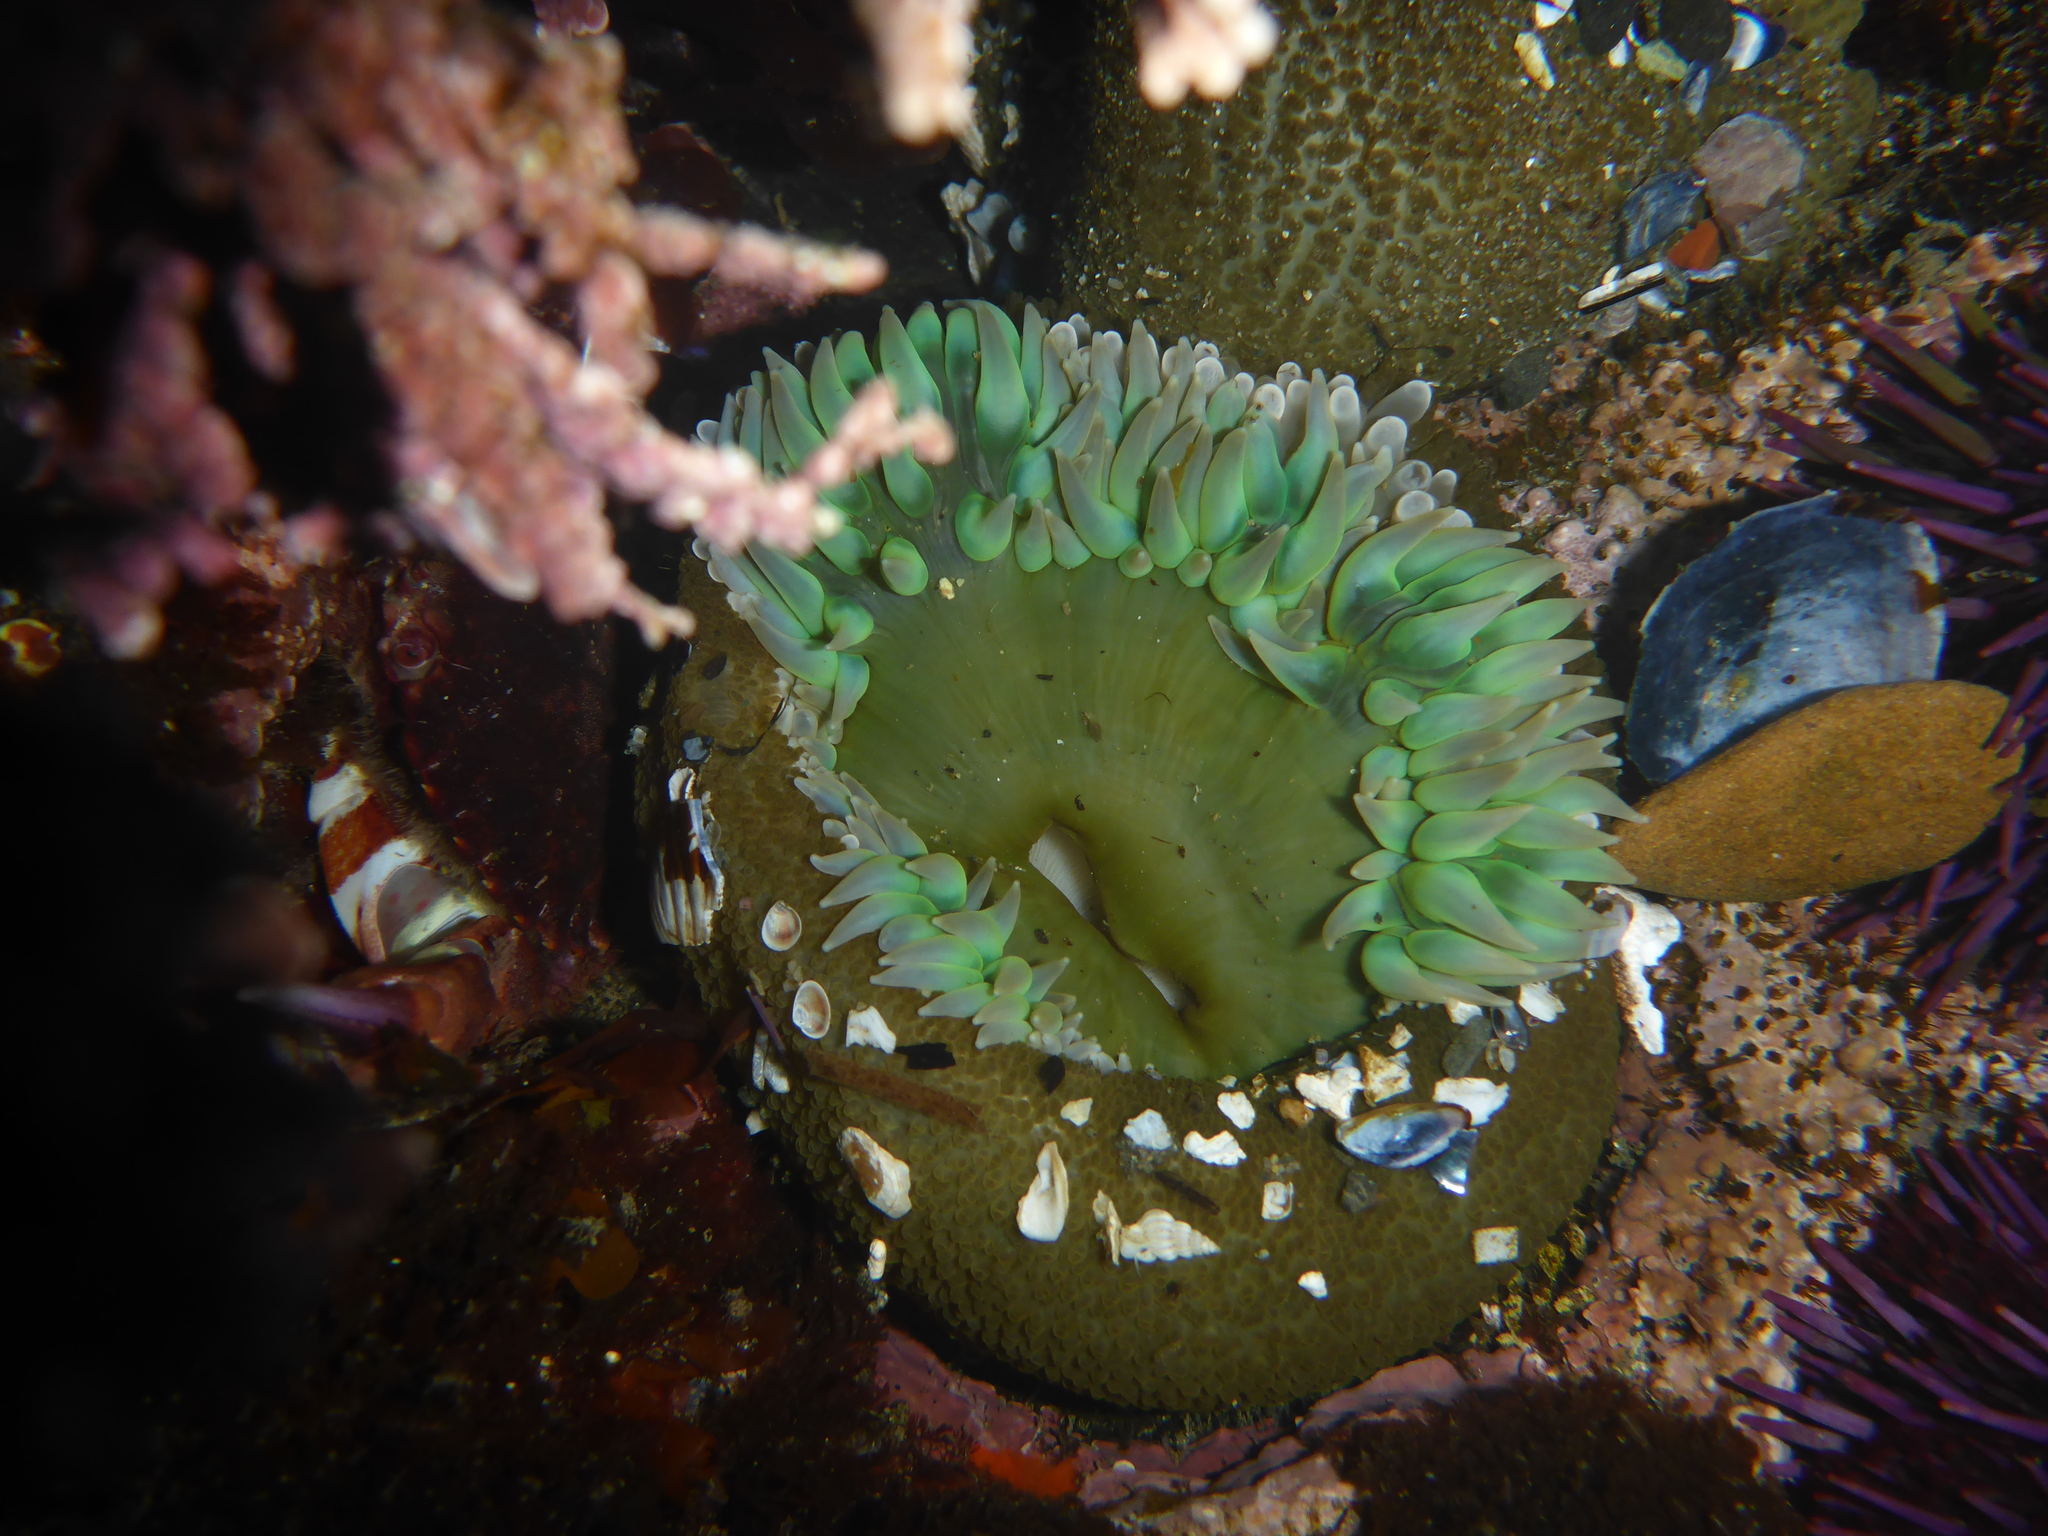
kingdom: Animalia
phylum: Cnidaria
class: Anthozoa
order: Actiniaria
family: Actiniidae
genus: Anthopleura
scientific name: Anthopleura xanthogrammica
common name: Giant green anemone
